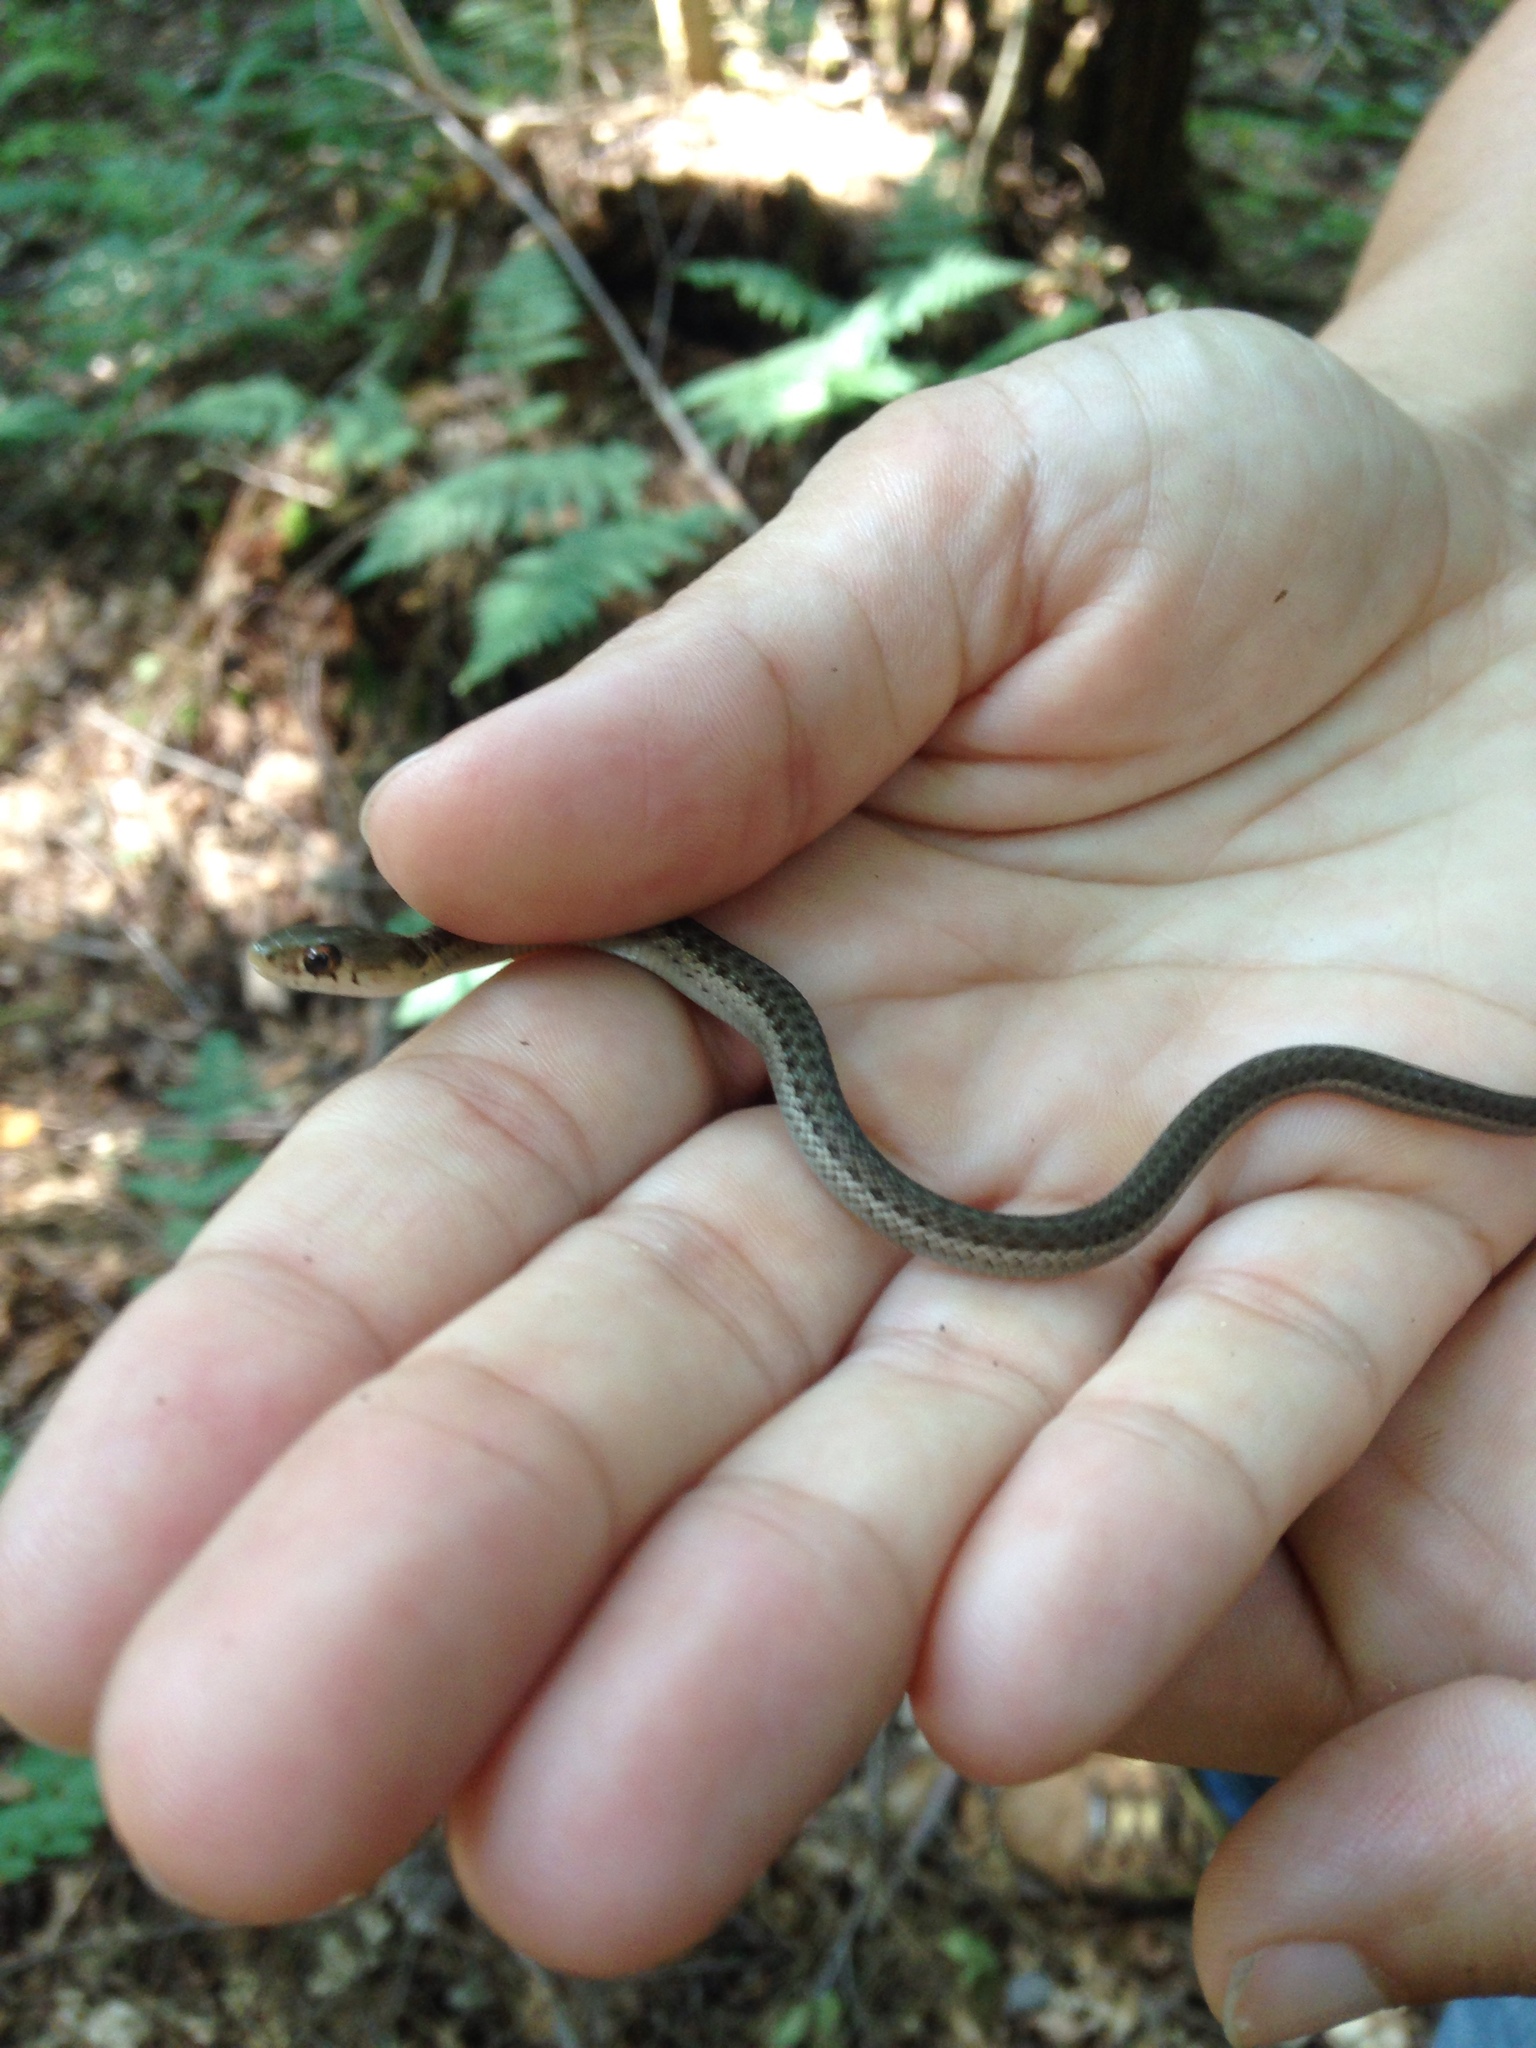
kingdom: Animalia
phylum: Chordata
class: Squamata
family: Colubridae
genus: Thamnophis
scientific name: Thamnophis sirtalis
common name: Common garter snake
